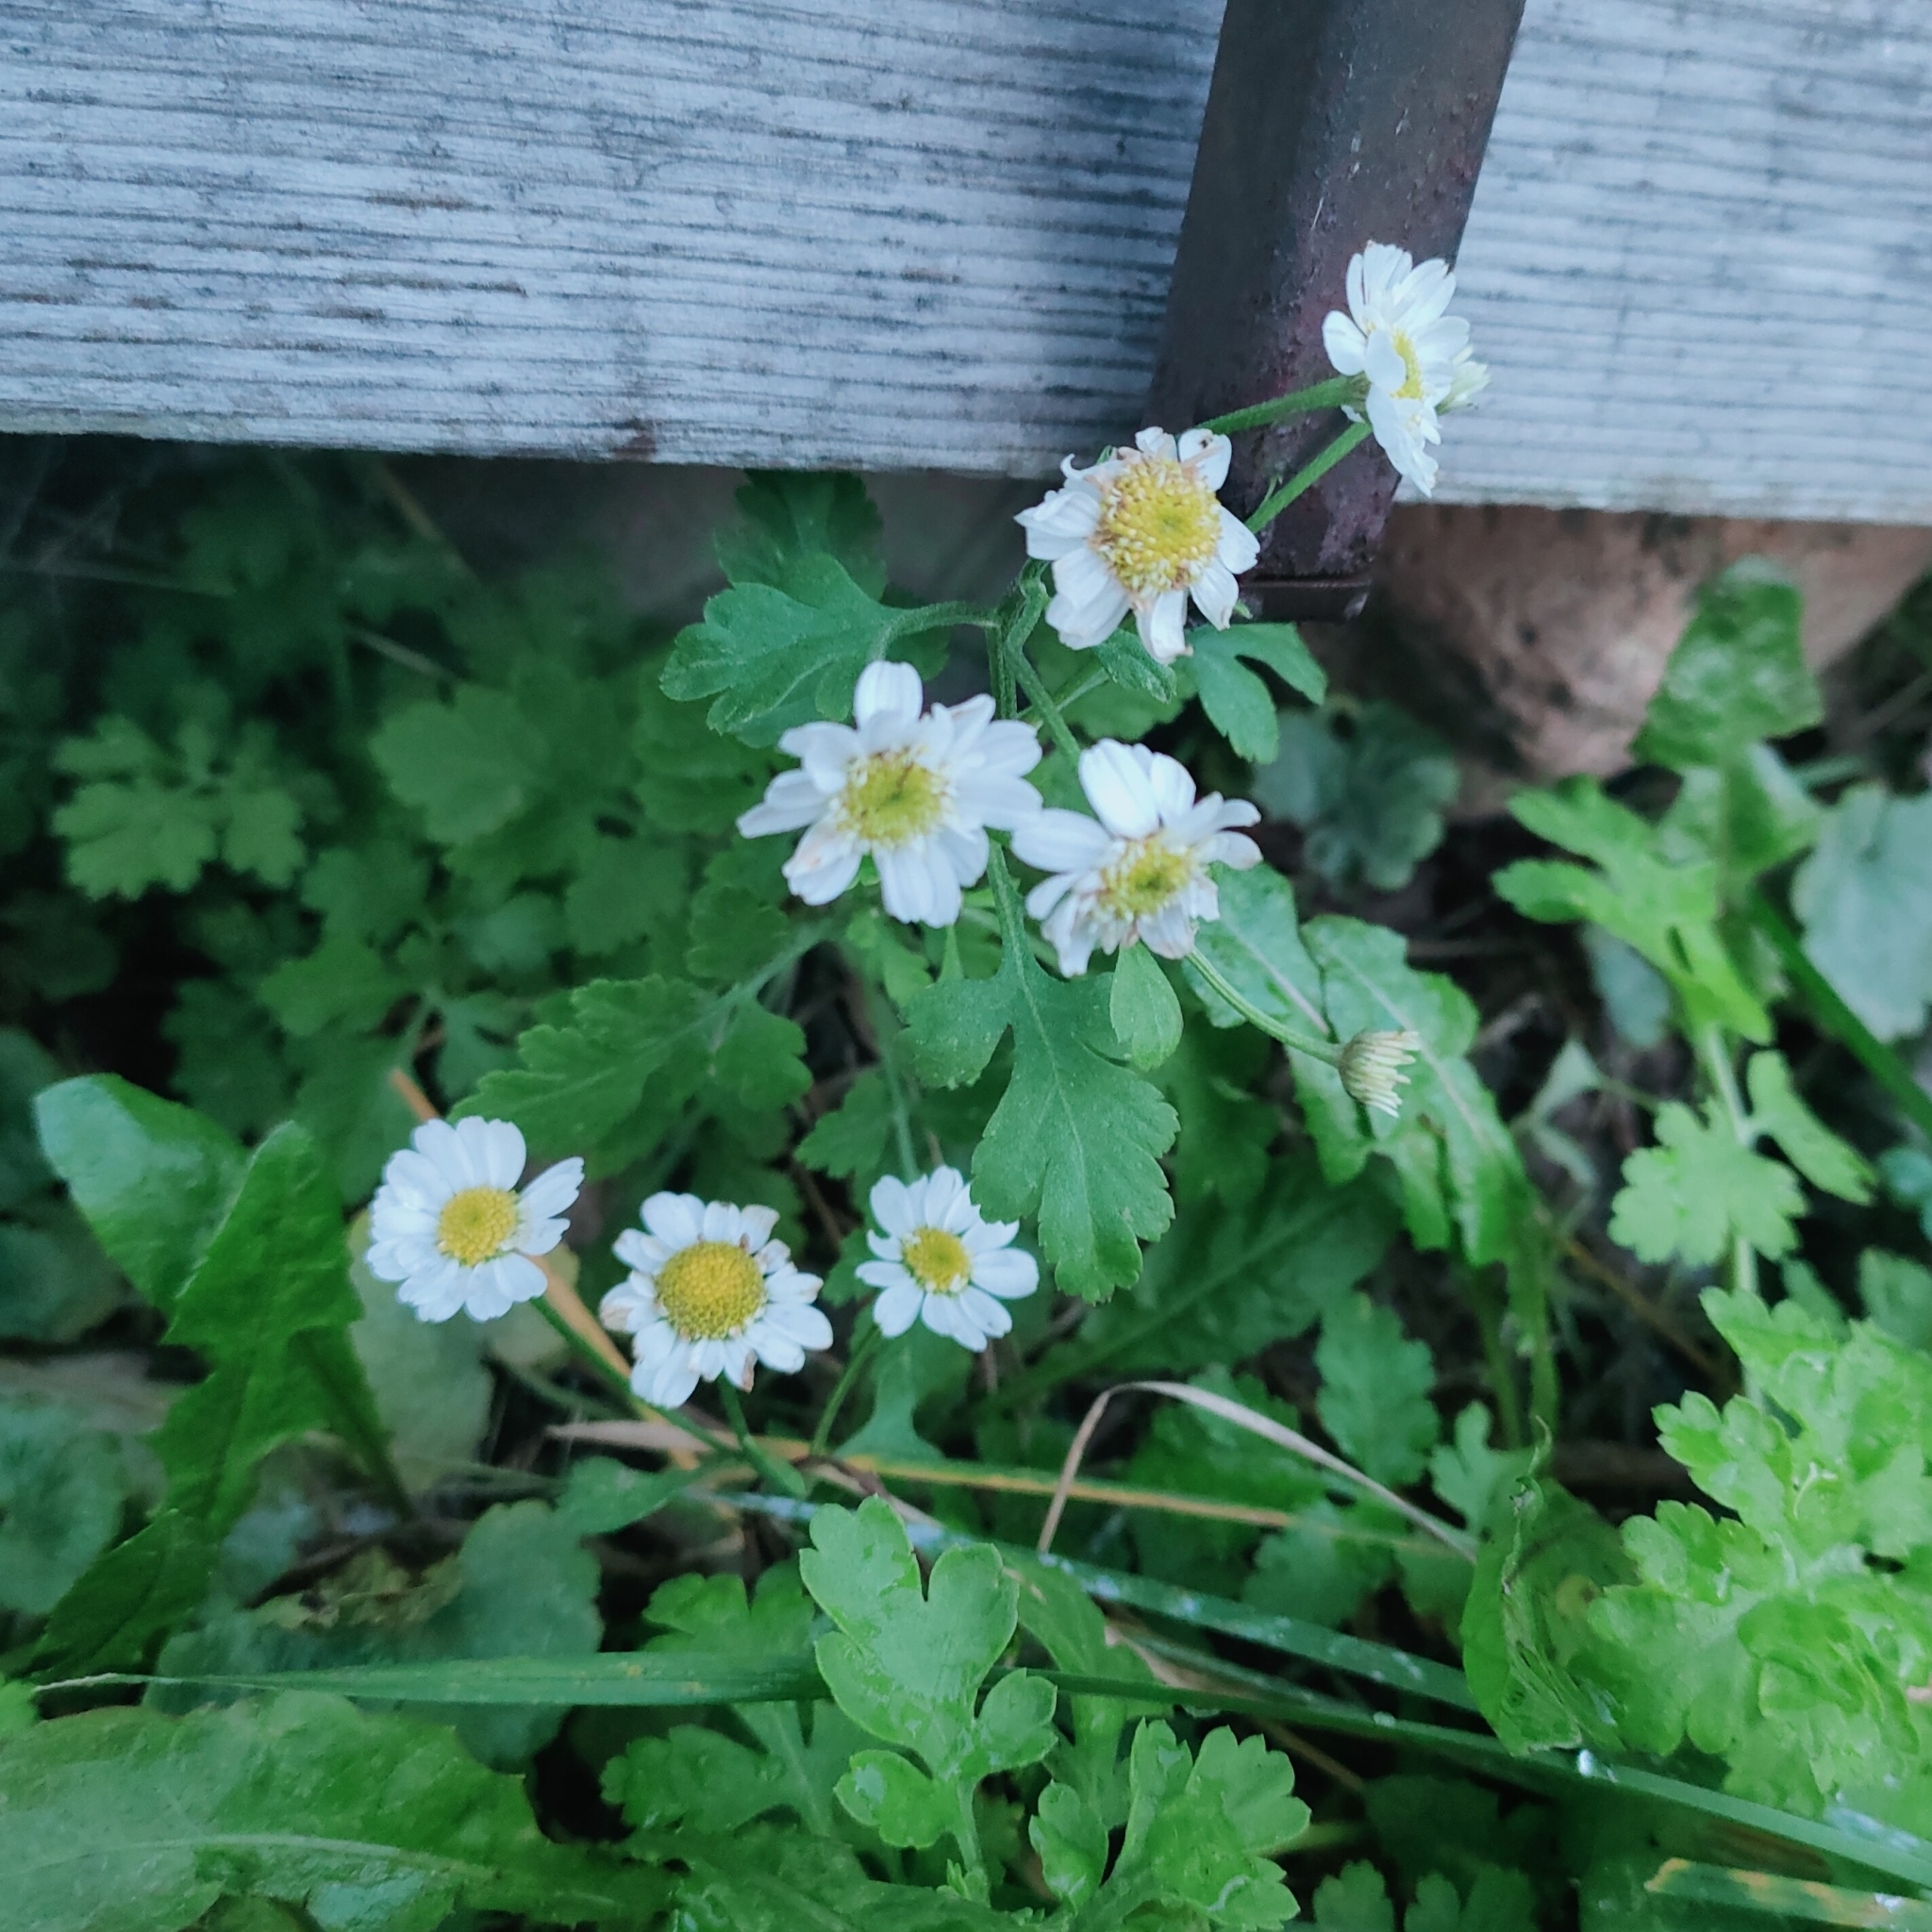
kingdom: Plantae
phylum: Tracheophyta
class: Magnoliopsida
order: Asterales
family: Asteraceae
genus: Tanacetum
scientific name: Tanacetum parthenium
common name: Feverfew
